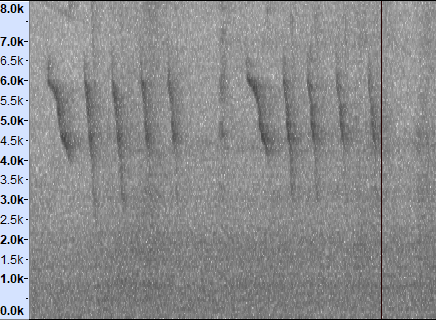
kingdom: Animalia
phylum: Chordata
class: Aves
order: Passeriformes
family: Muscicapidae
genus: Copsychus
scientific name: Copsychus saularis
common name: Oriental magpie-robin
